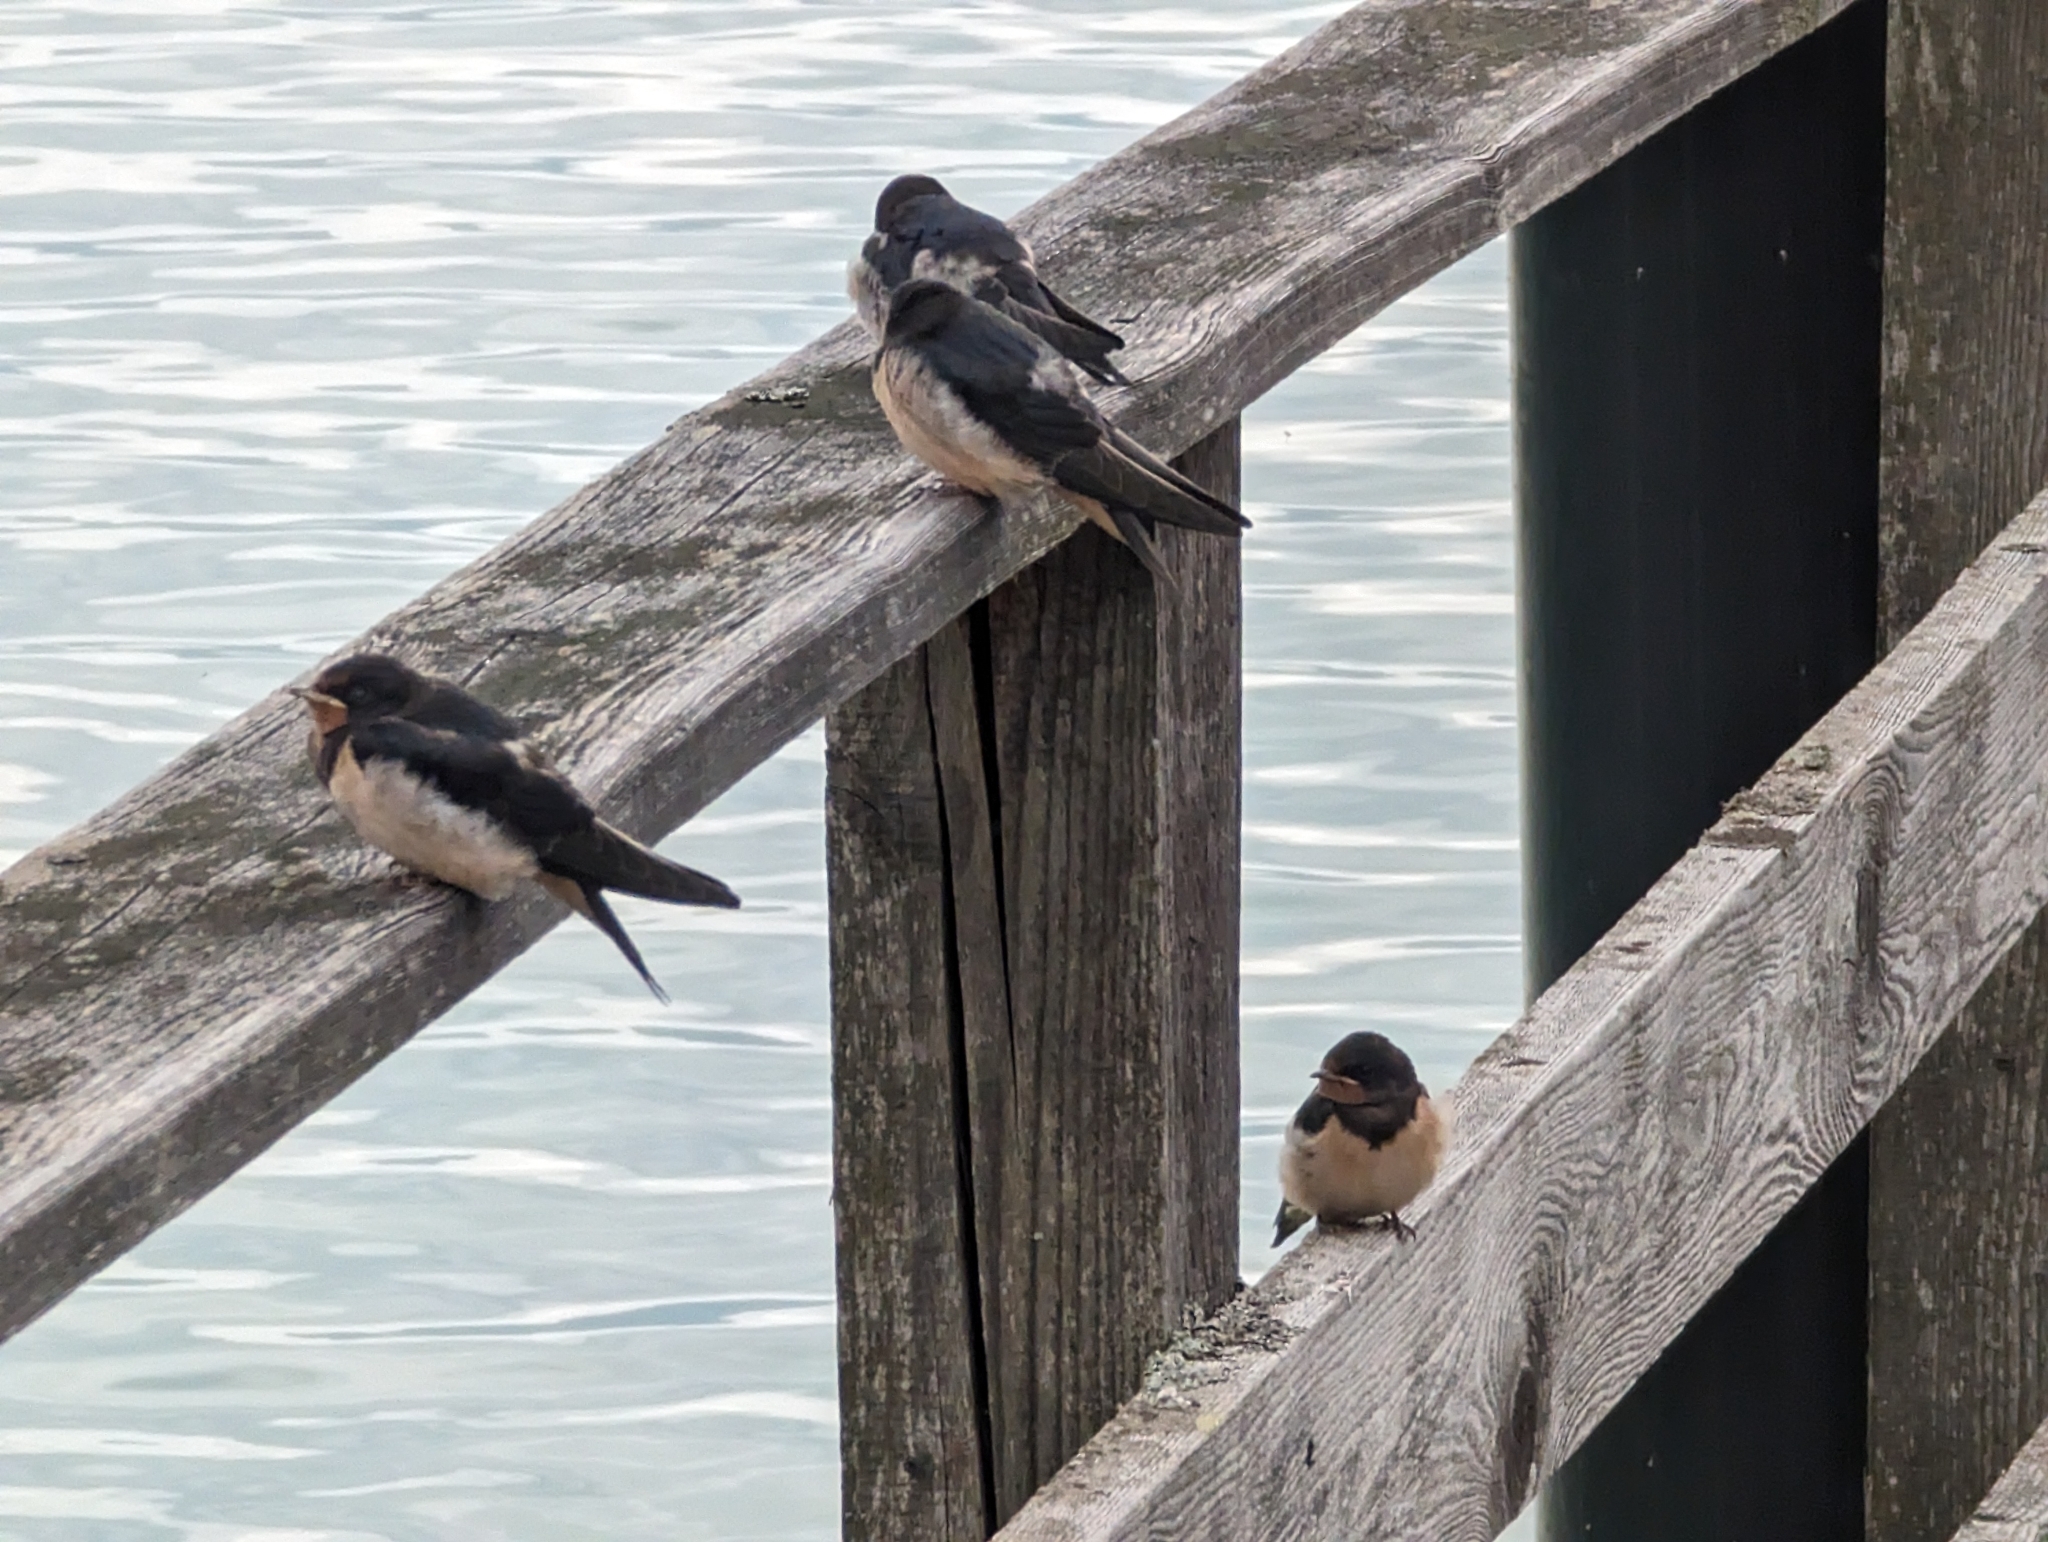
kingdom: Animalia
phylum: Chordata
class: Aves
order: Passeriformes
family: Hirundinidae
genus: Hirundo
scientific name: Hirundo rustica
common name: Barn swallow
